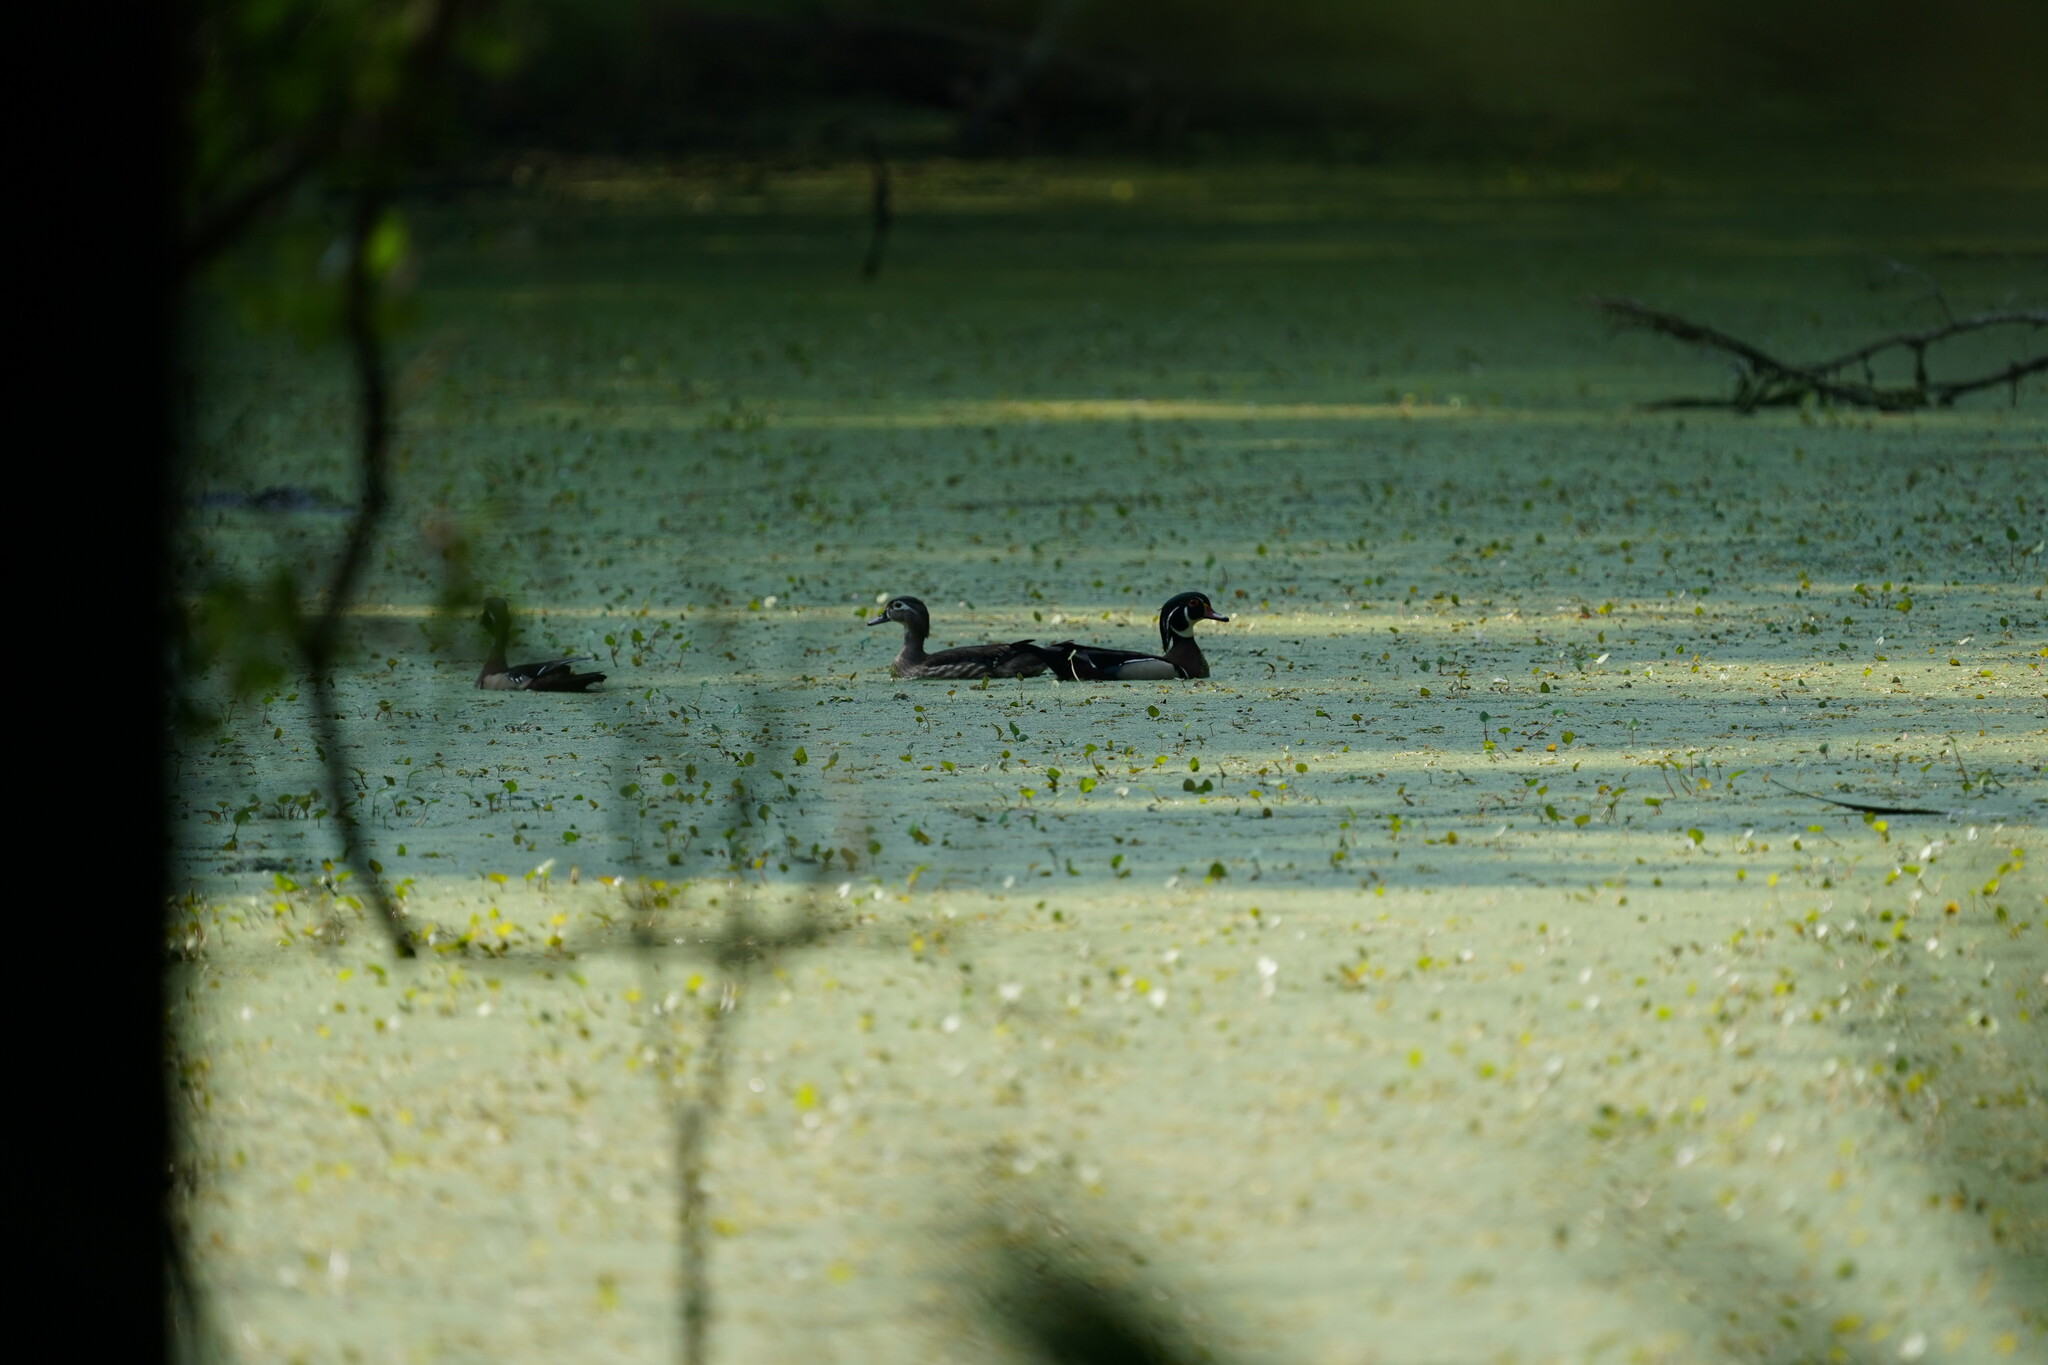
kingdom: Animalia
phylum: Chordata
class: Aves
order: Anseriformes
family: Anatidae
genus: Aix
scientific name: Aix sponsa
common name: Wood duck
